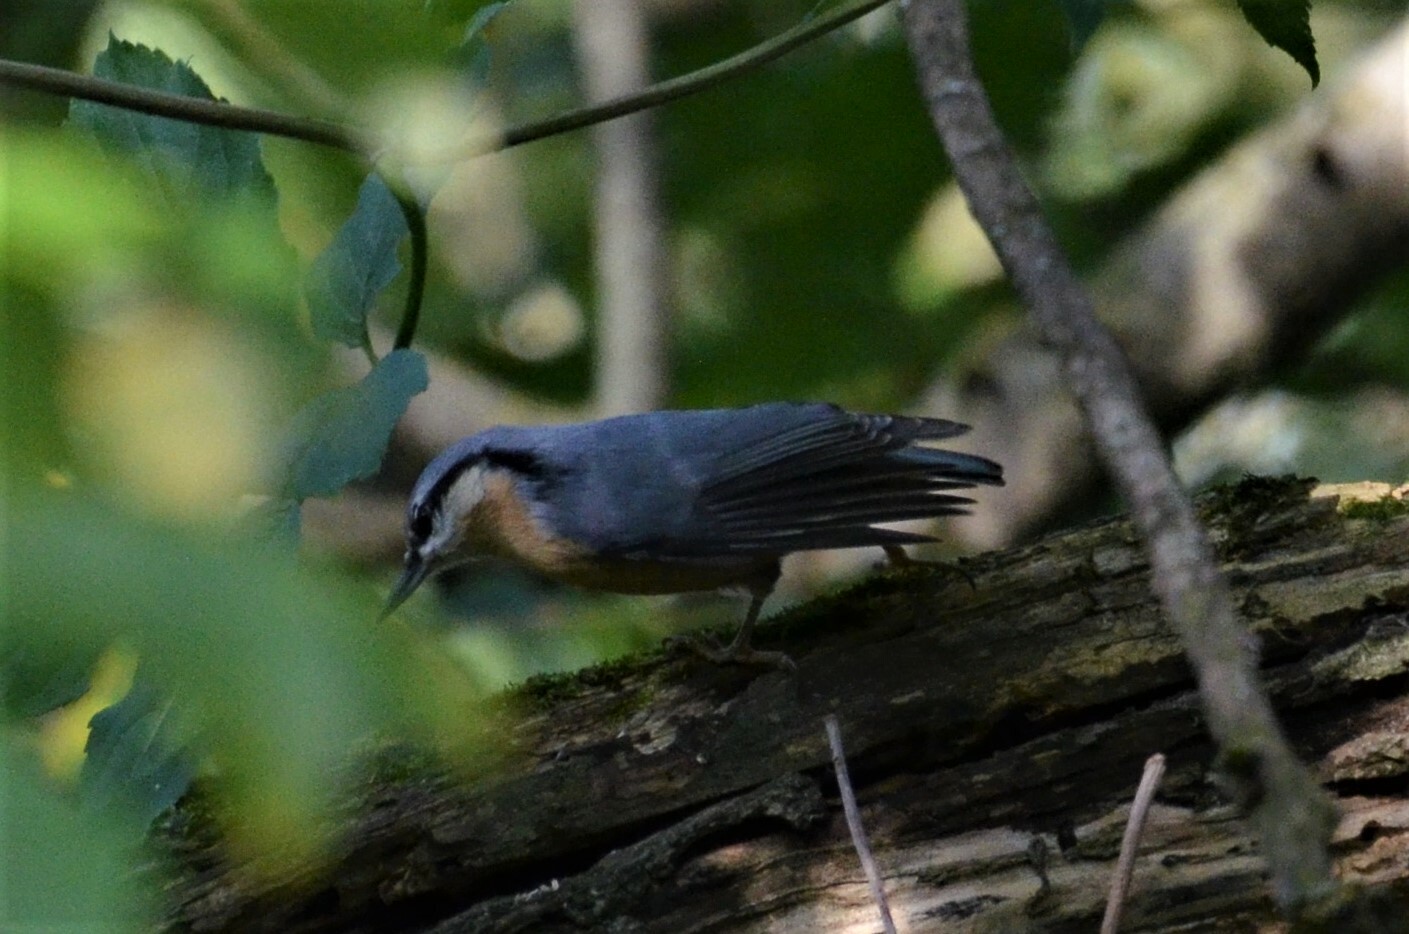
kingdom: Animalia
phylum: Chordata
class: Aves
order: Passeriformes
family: Sittidae
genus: Sitta
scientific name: Sitta europaea
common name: Eurasian nuthatch
